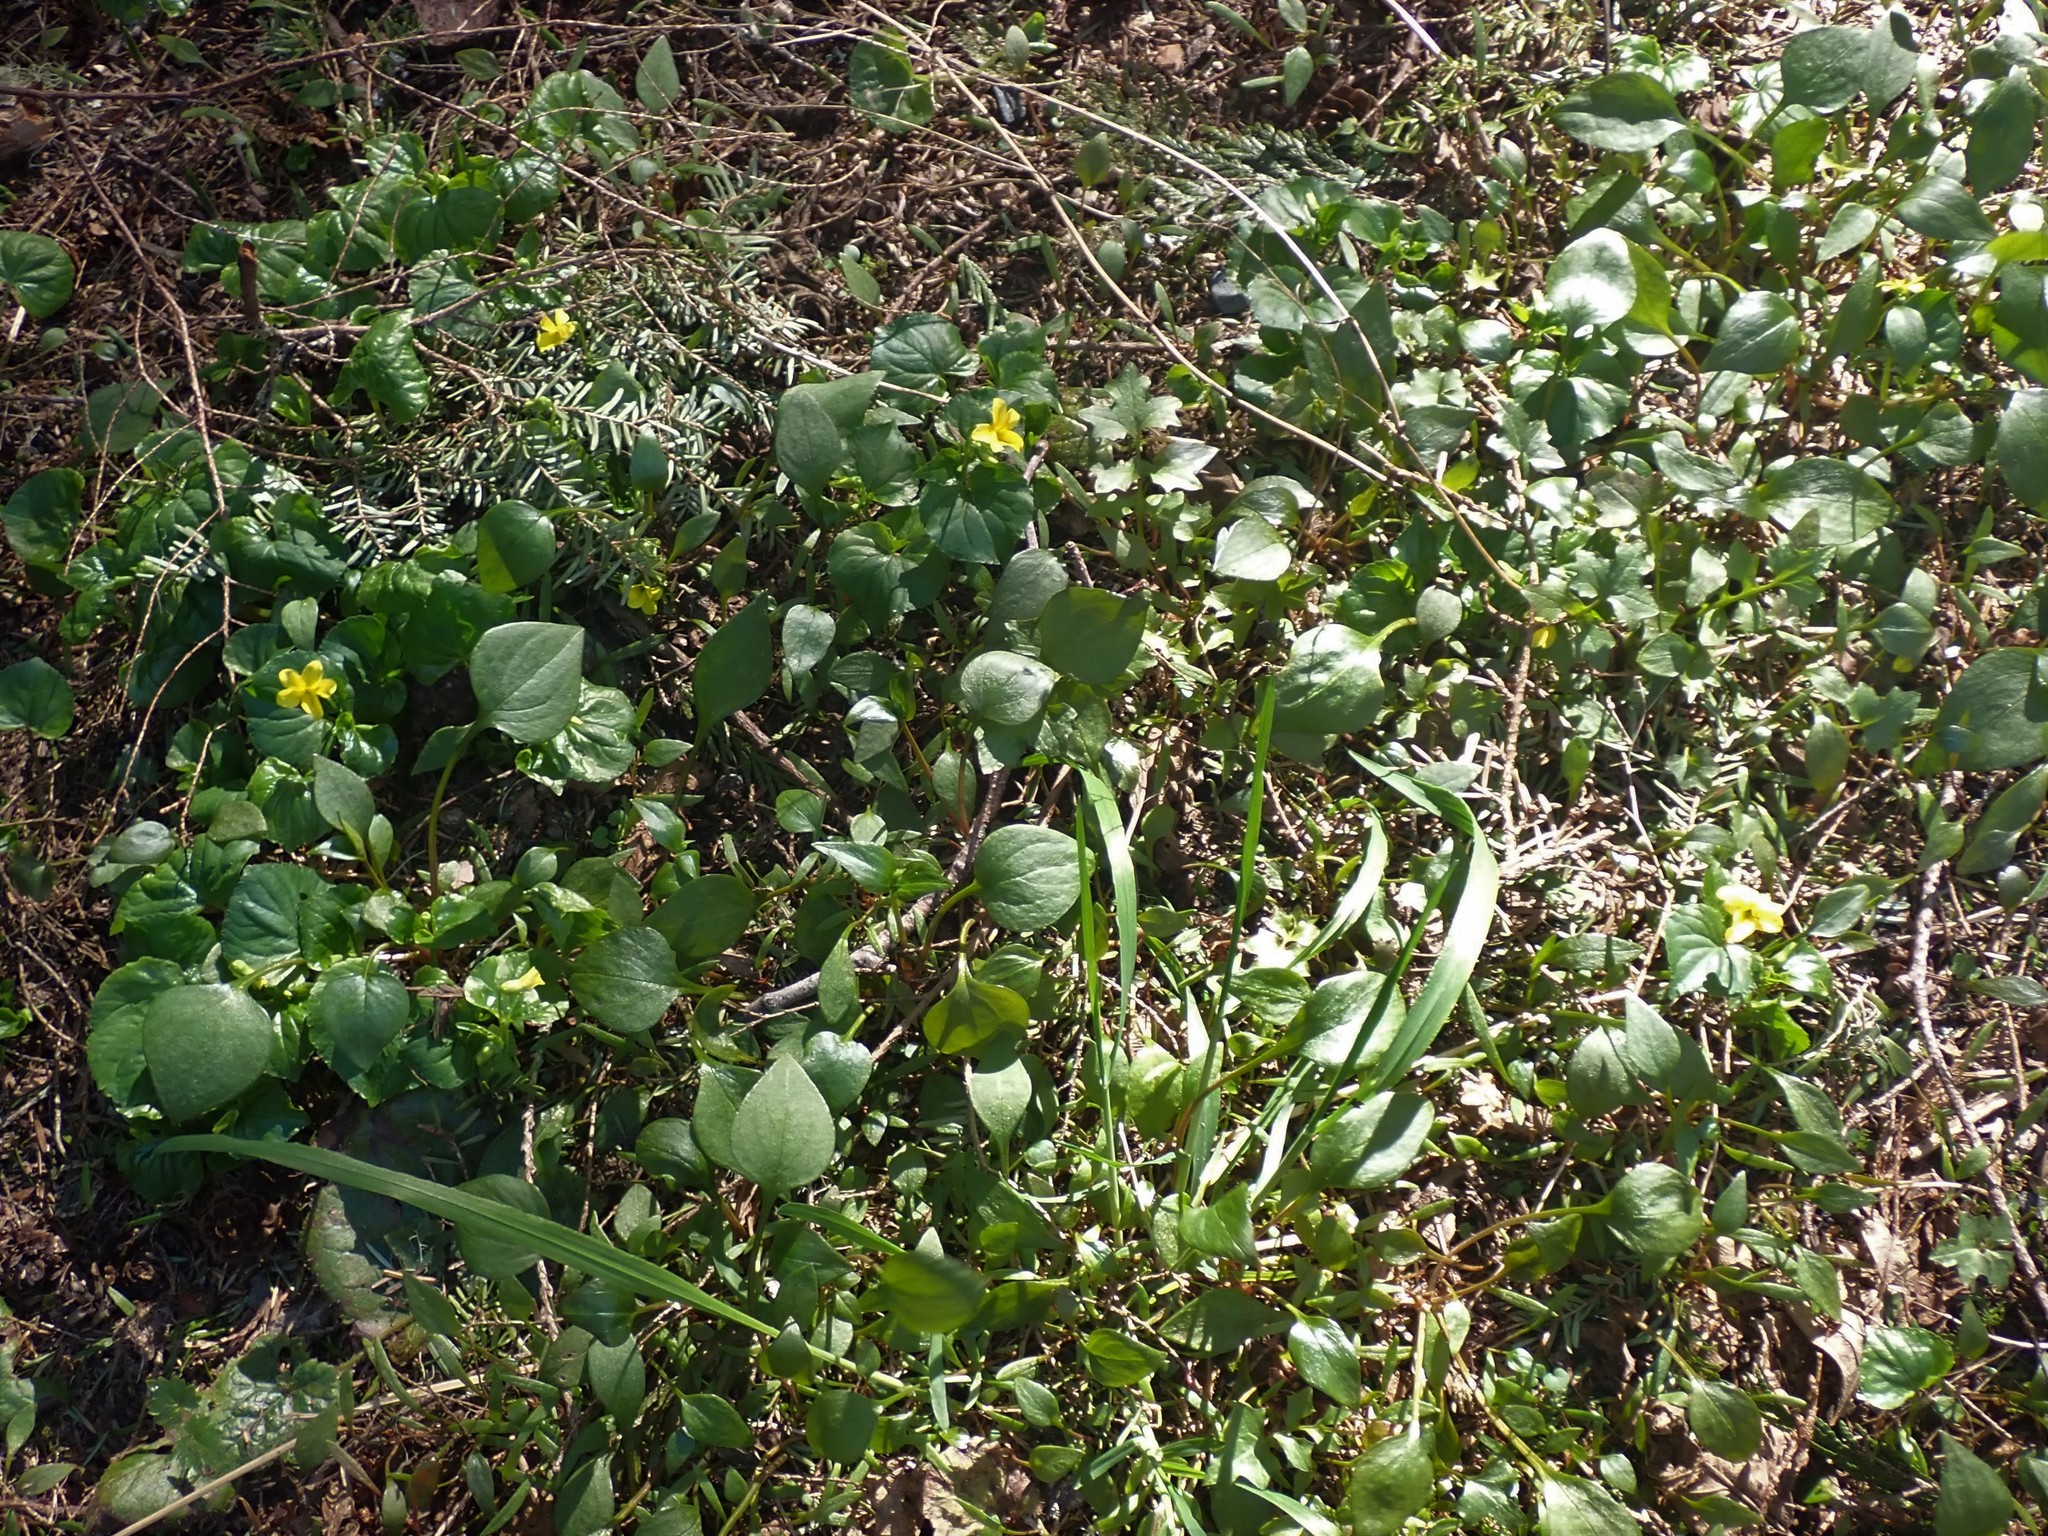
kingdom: Plantae
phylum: Tracheophyta
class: Magnoliopsida
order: Malpighiales
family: Violaceae
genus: Viola
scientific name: Viola glabella
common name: Stream violet
